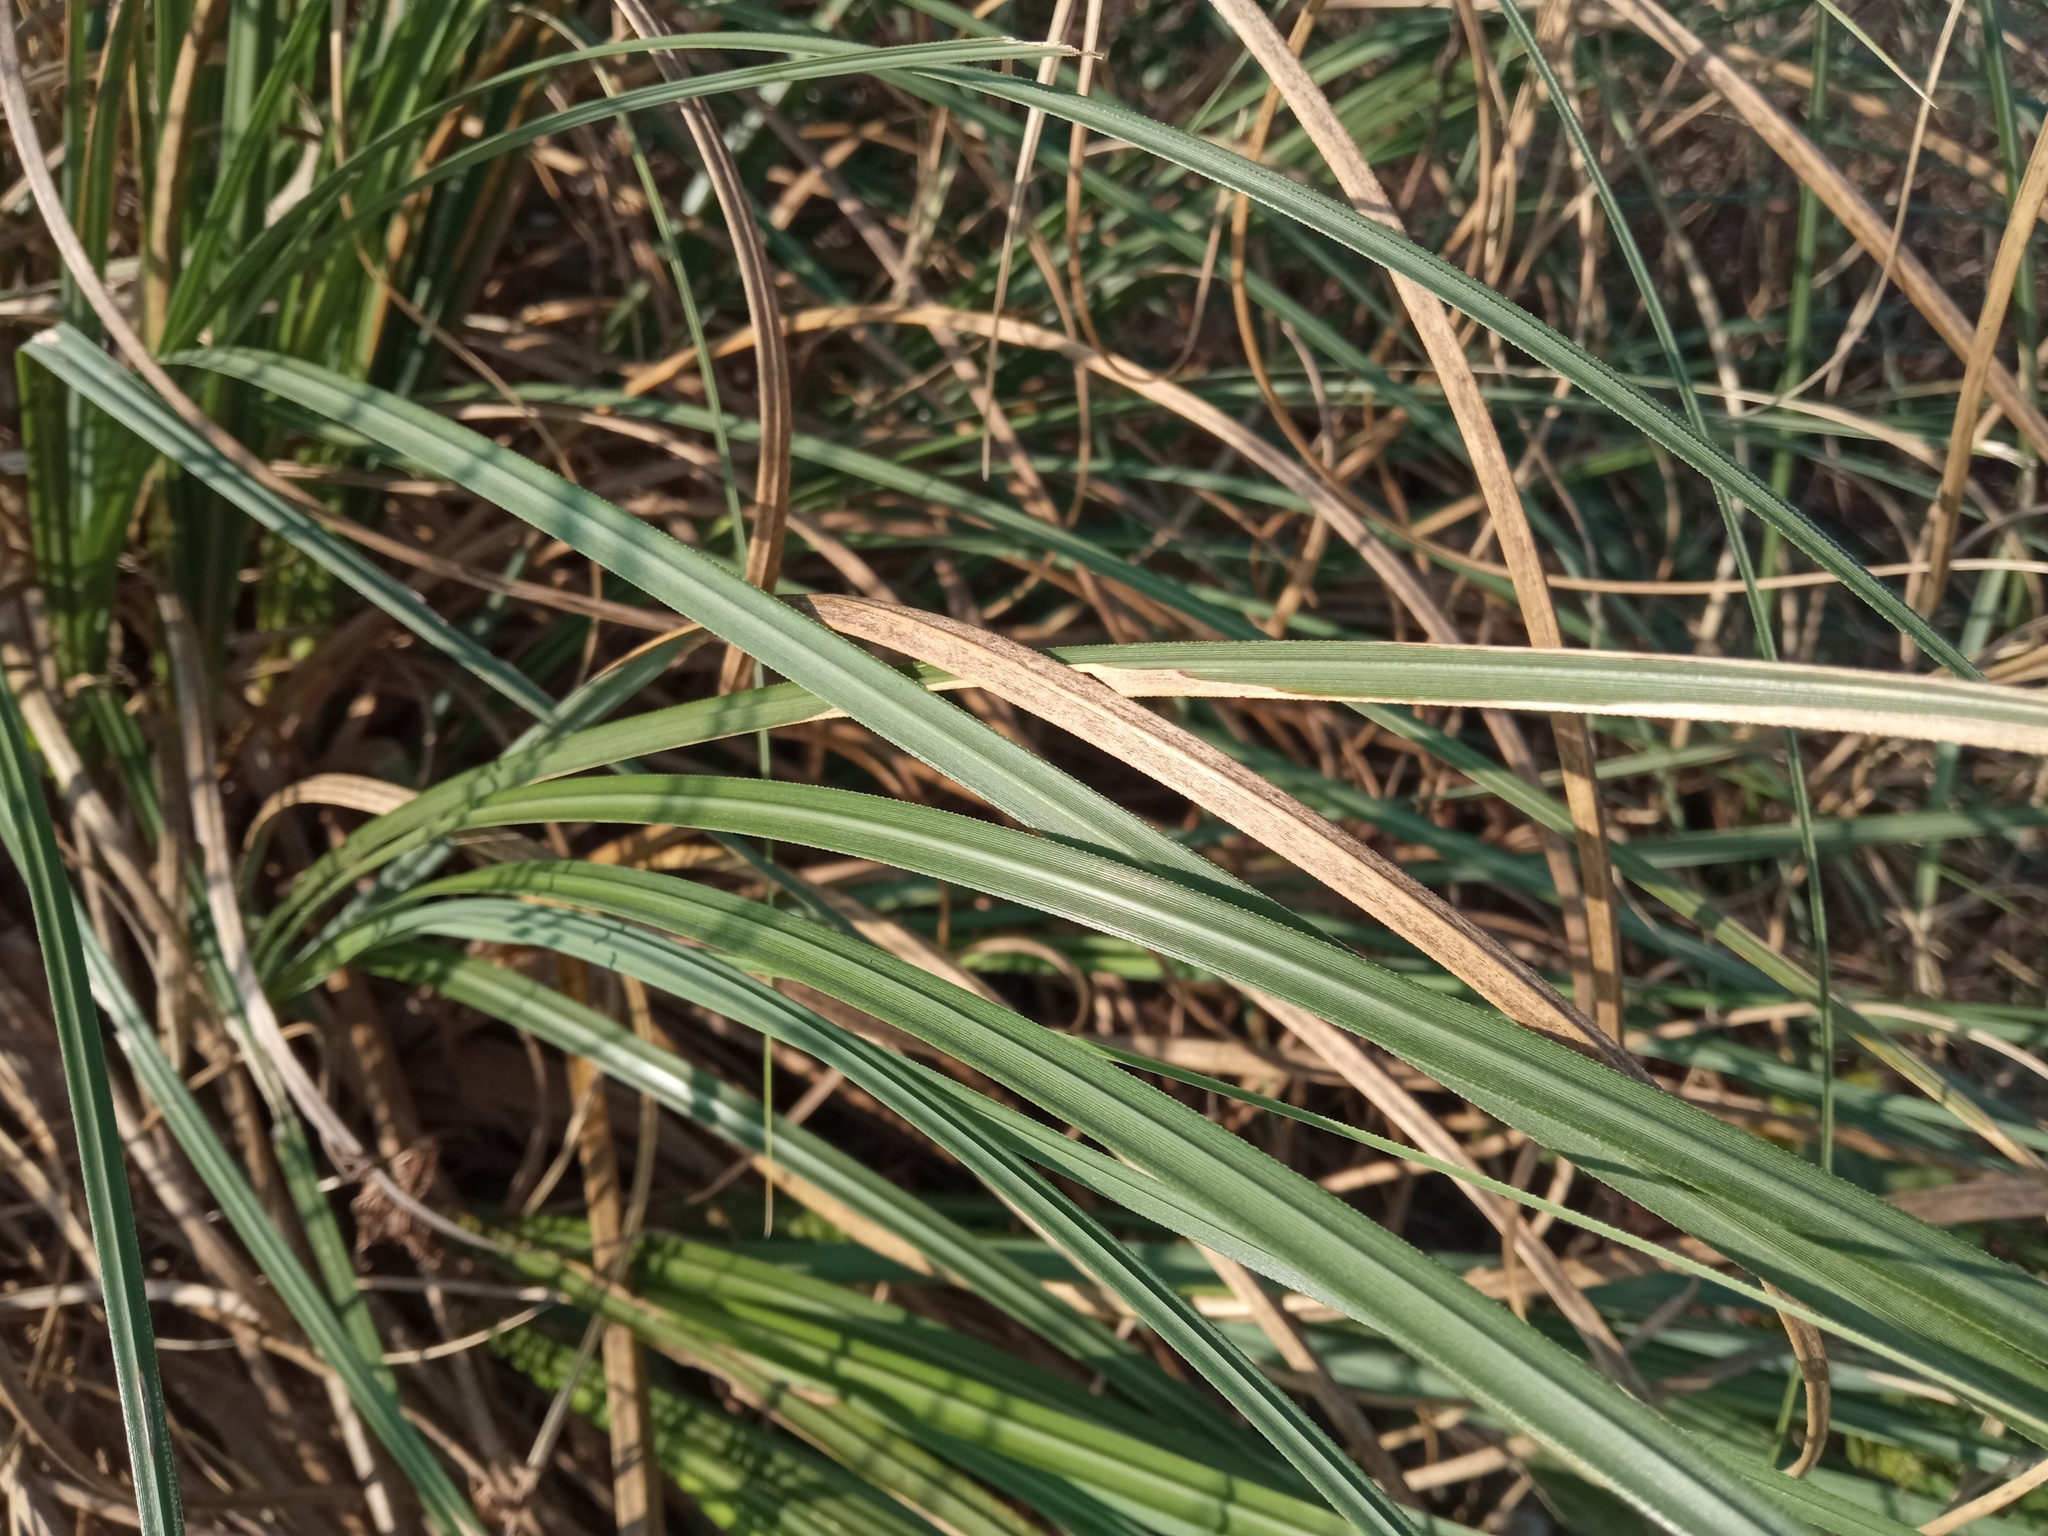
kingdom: Plantae
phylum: Tracheophyta
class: Liliopsida
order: Poales
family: Poaceae
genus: Cortaderia
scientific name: Cortaderia selloana
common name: Uruguayan pampas grass
